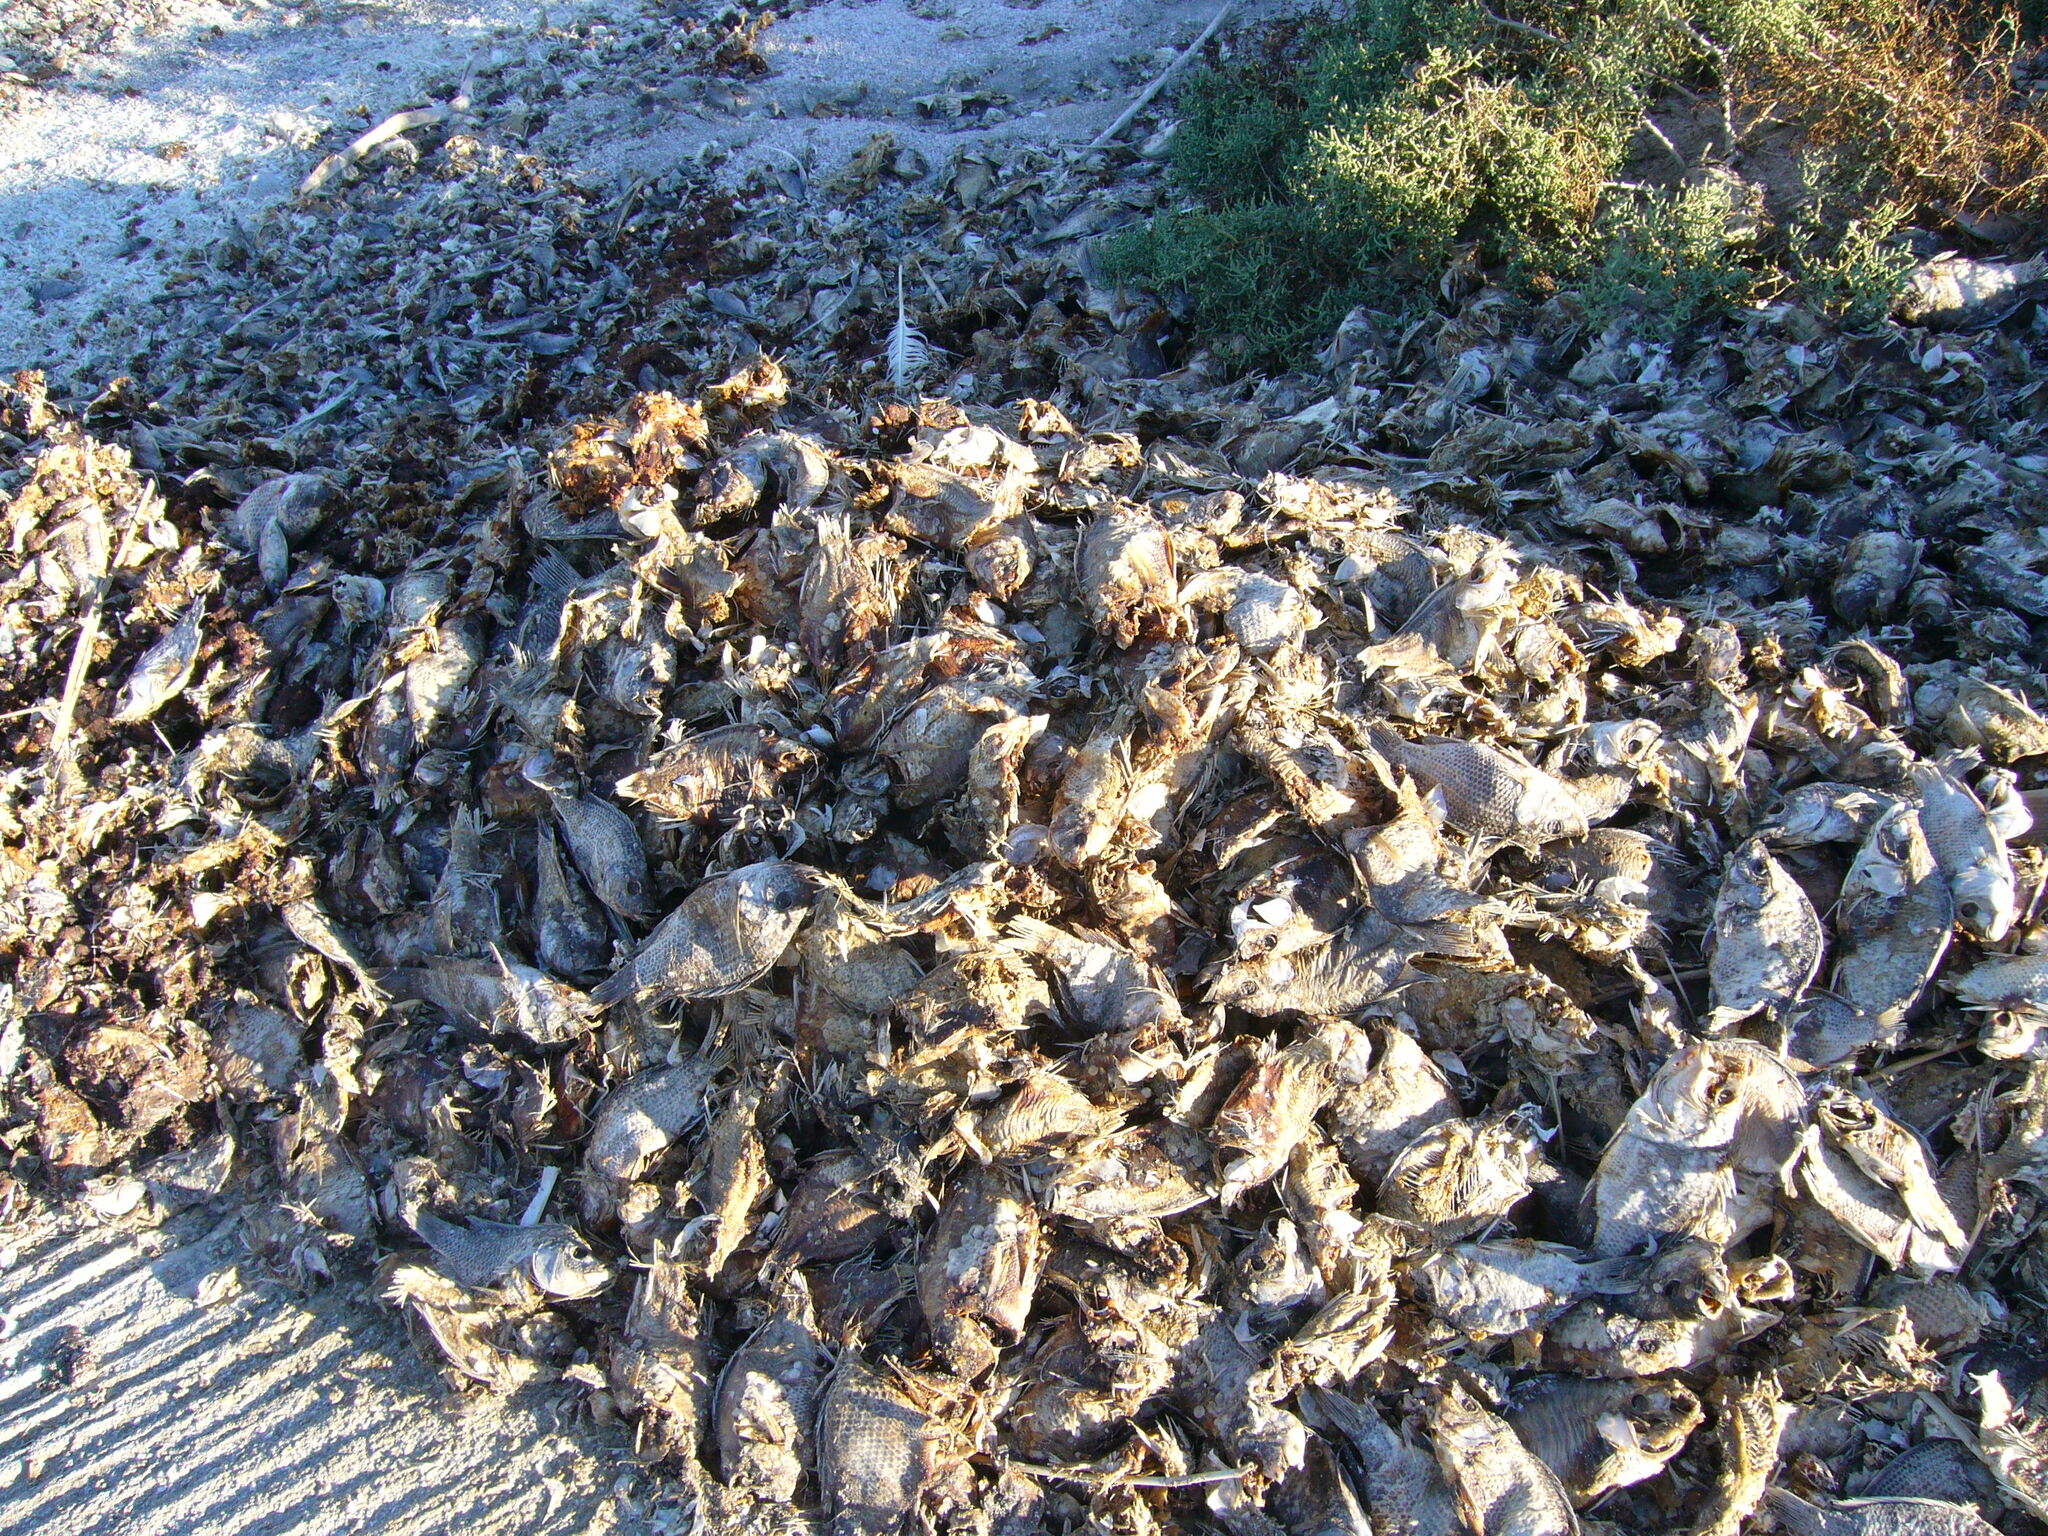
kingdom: Animalia
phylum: Chordata
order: Perciformes
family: Cichlidae
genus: Oreochromis
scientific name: Oreochromis mossambicus
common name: Mozambique tilapia
